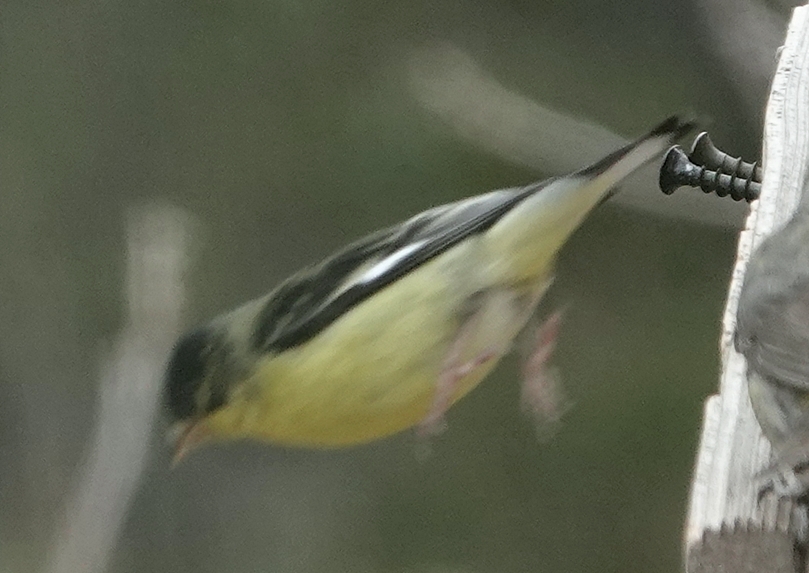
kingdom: Animalia
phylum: Chordata
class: Aves
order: Passeriformes
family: Fringillidae
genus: Spinus
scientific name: Spinus psaltria
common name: Lesser goldfinch
